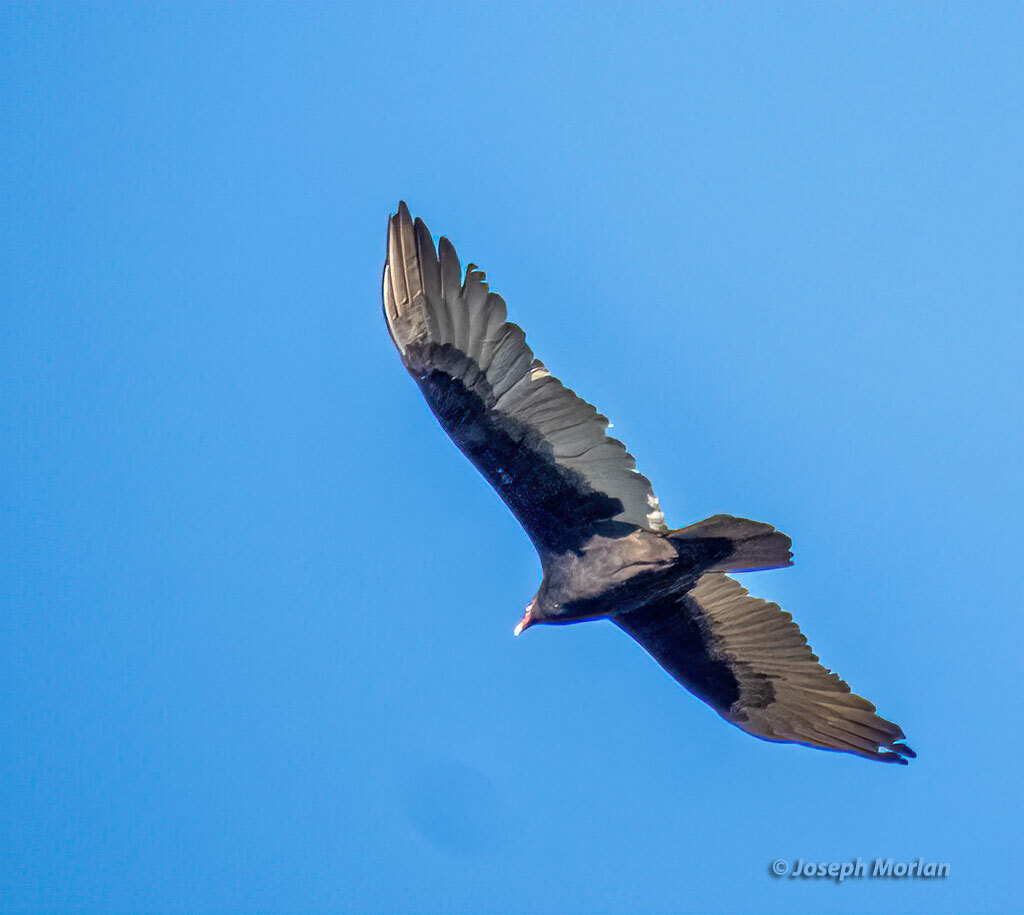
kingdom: Animalia
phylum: Chordata
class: Aves
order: Accipitriformes
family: Cathartidae
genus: Cathartes
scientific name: Cathartes aura
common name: Turkey vulture
